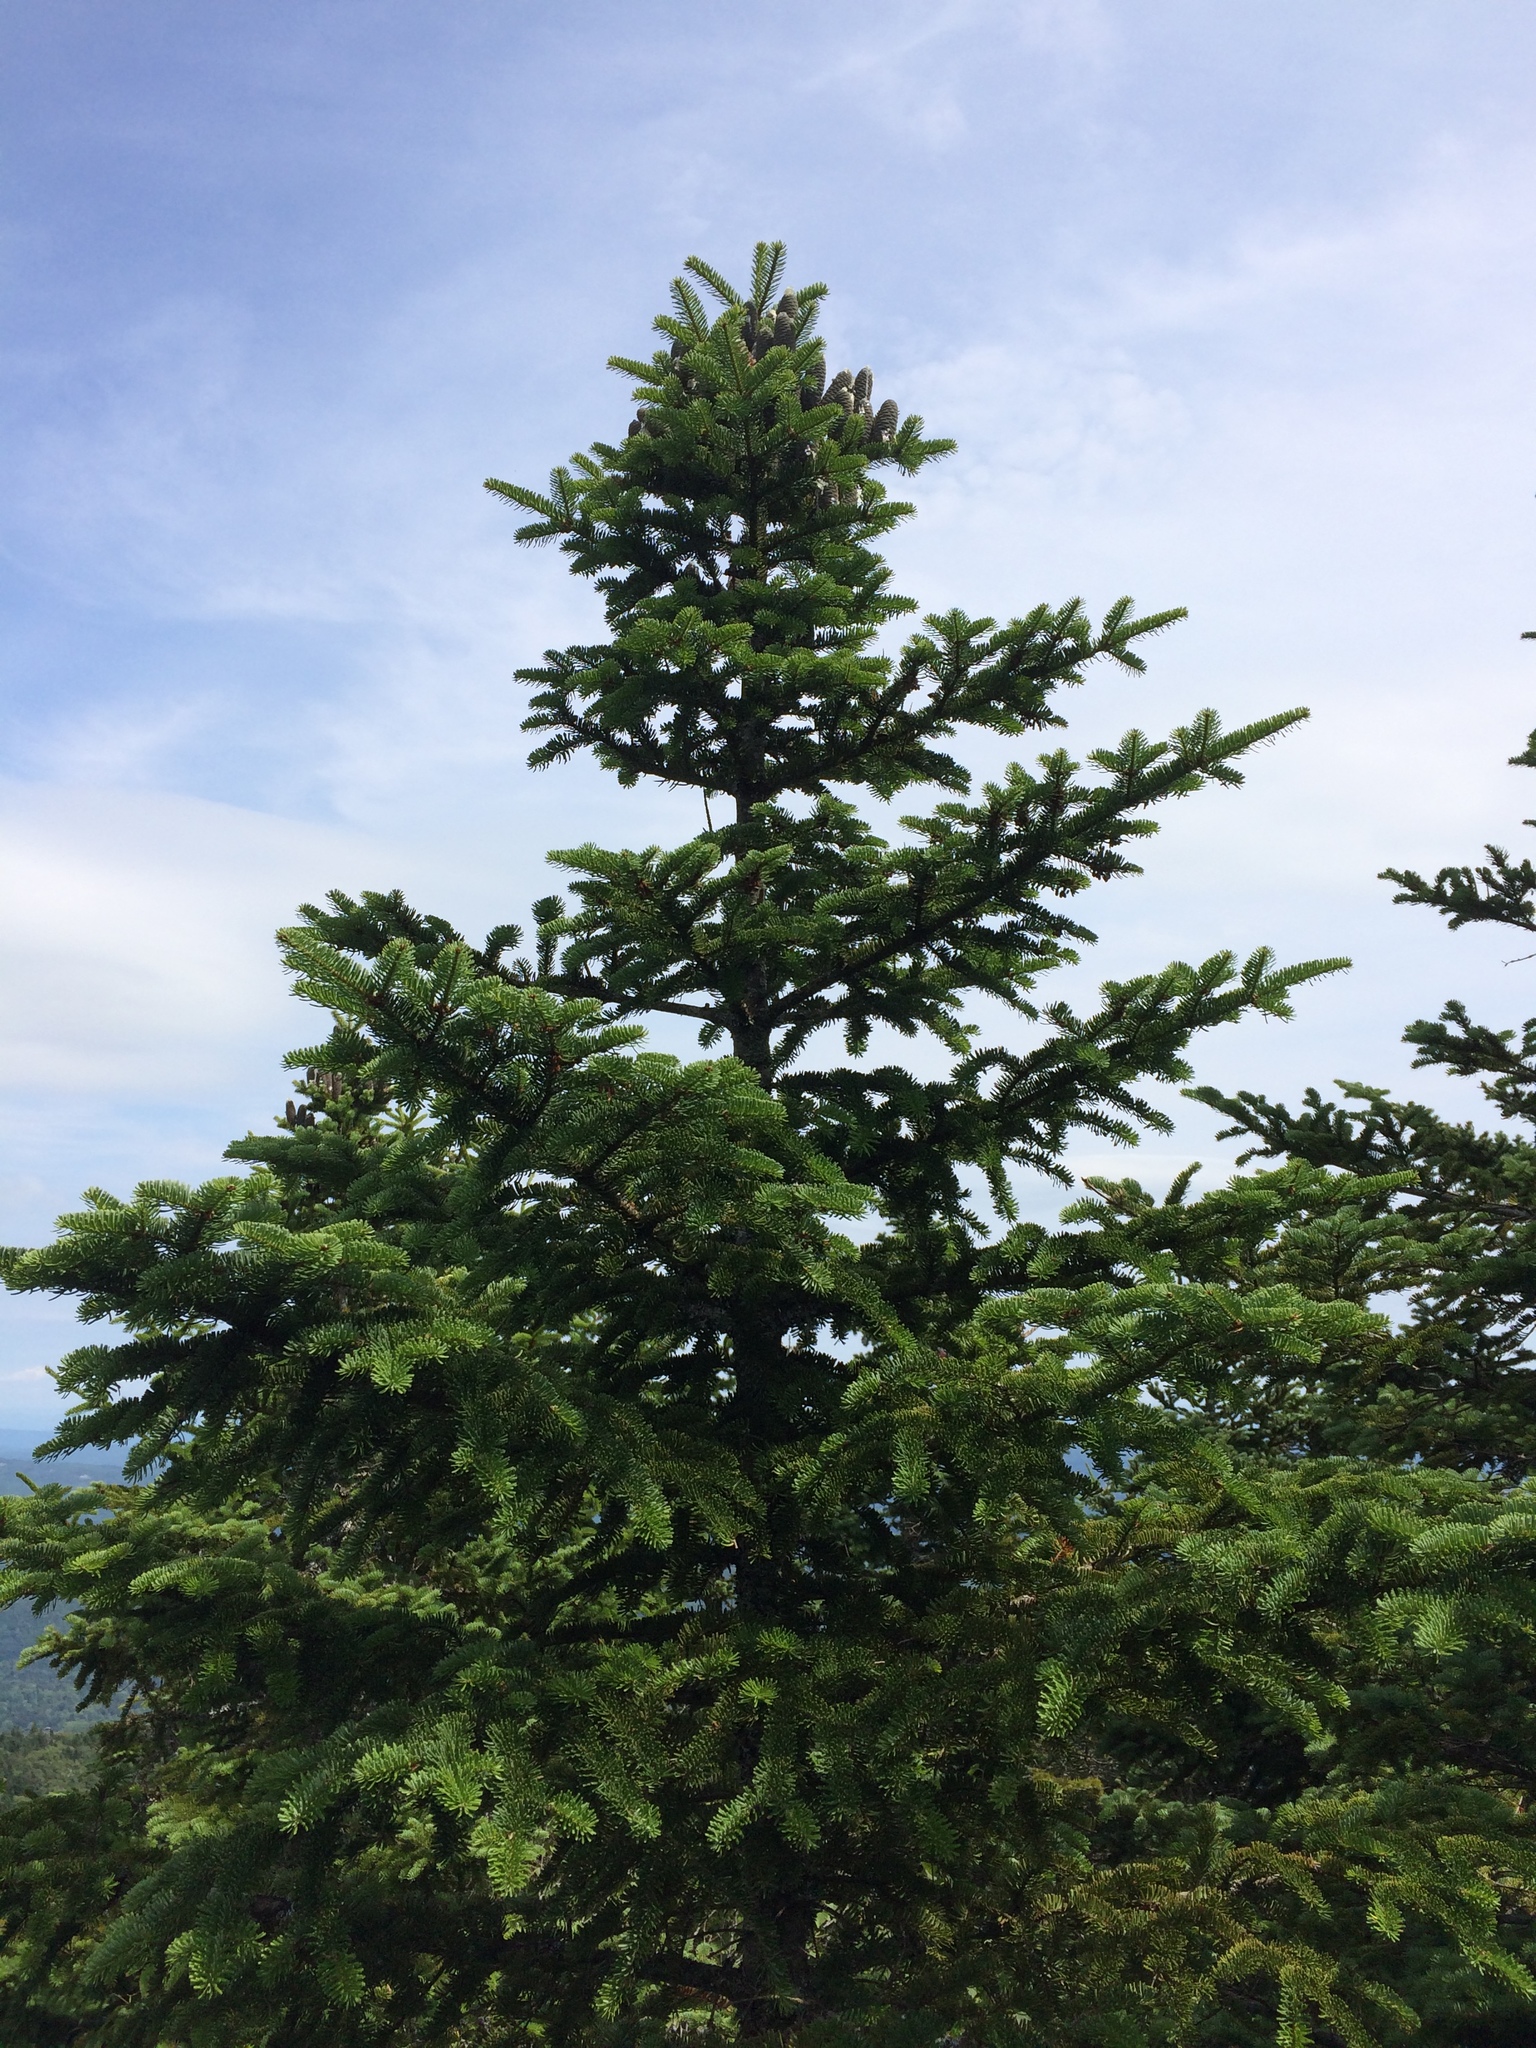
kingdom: Plantae
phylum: Tracheophyta
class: Pinopsida
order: Pinales
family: Pinaceae
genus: Abies
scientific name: Abies balsamea
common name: Balsam fir
